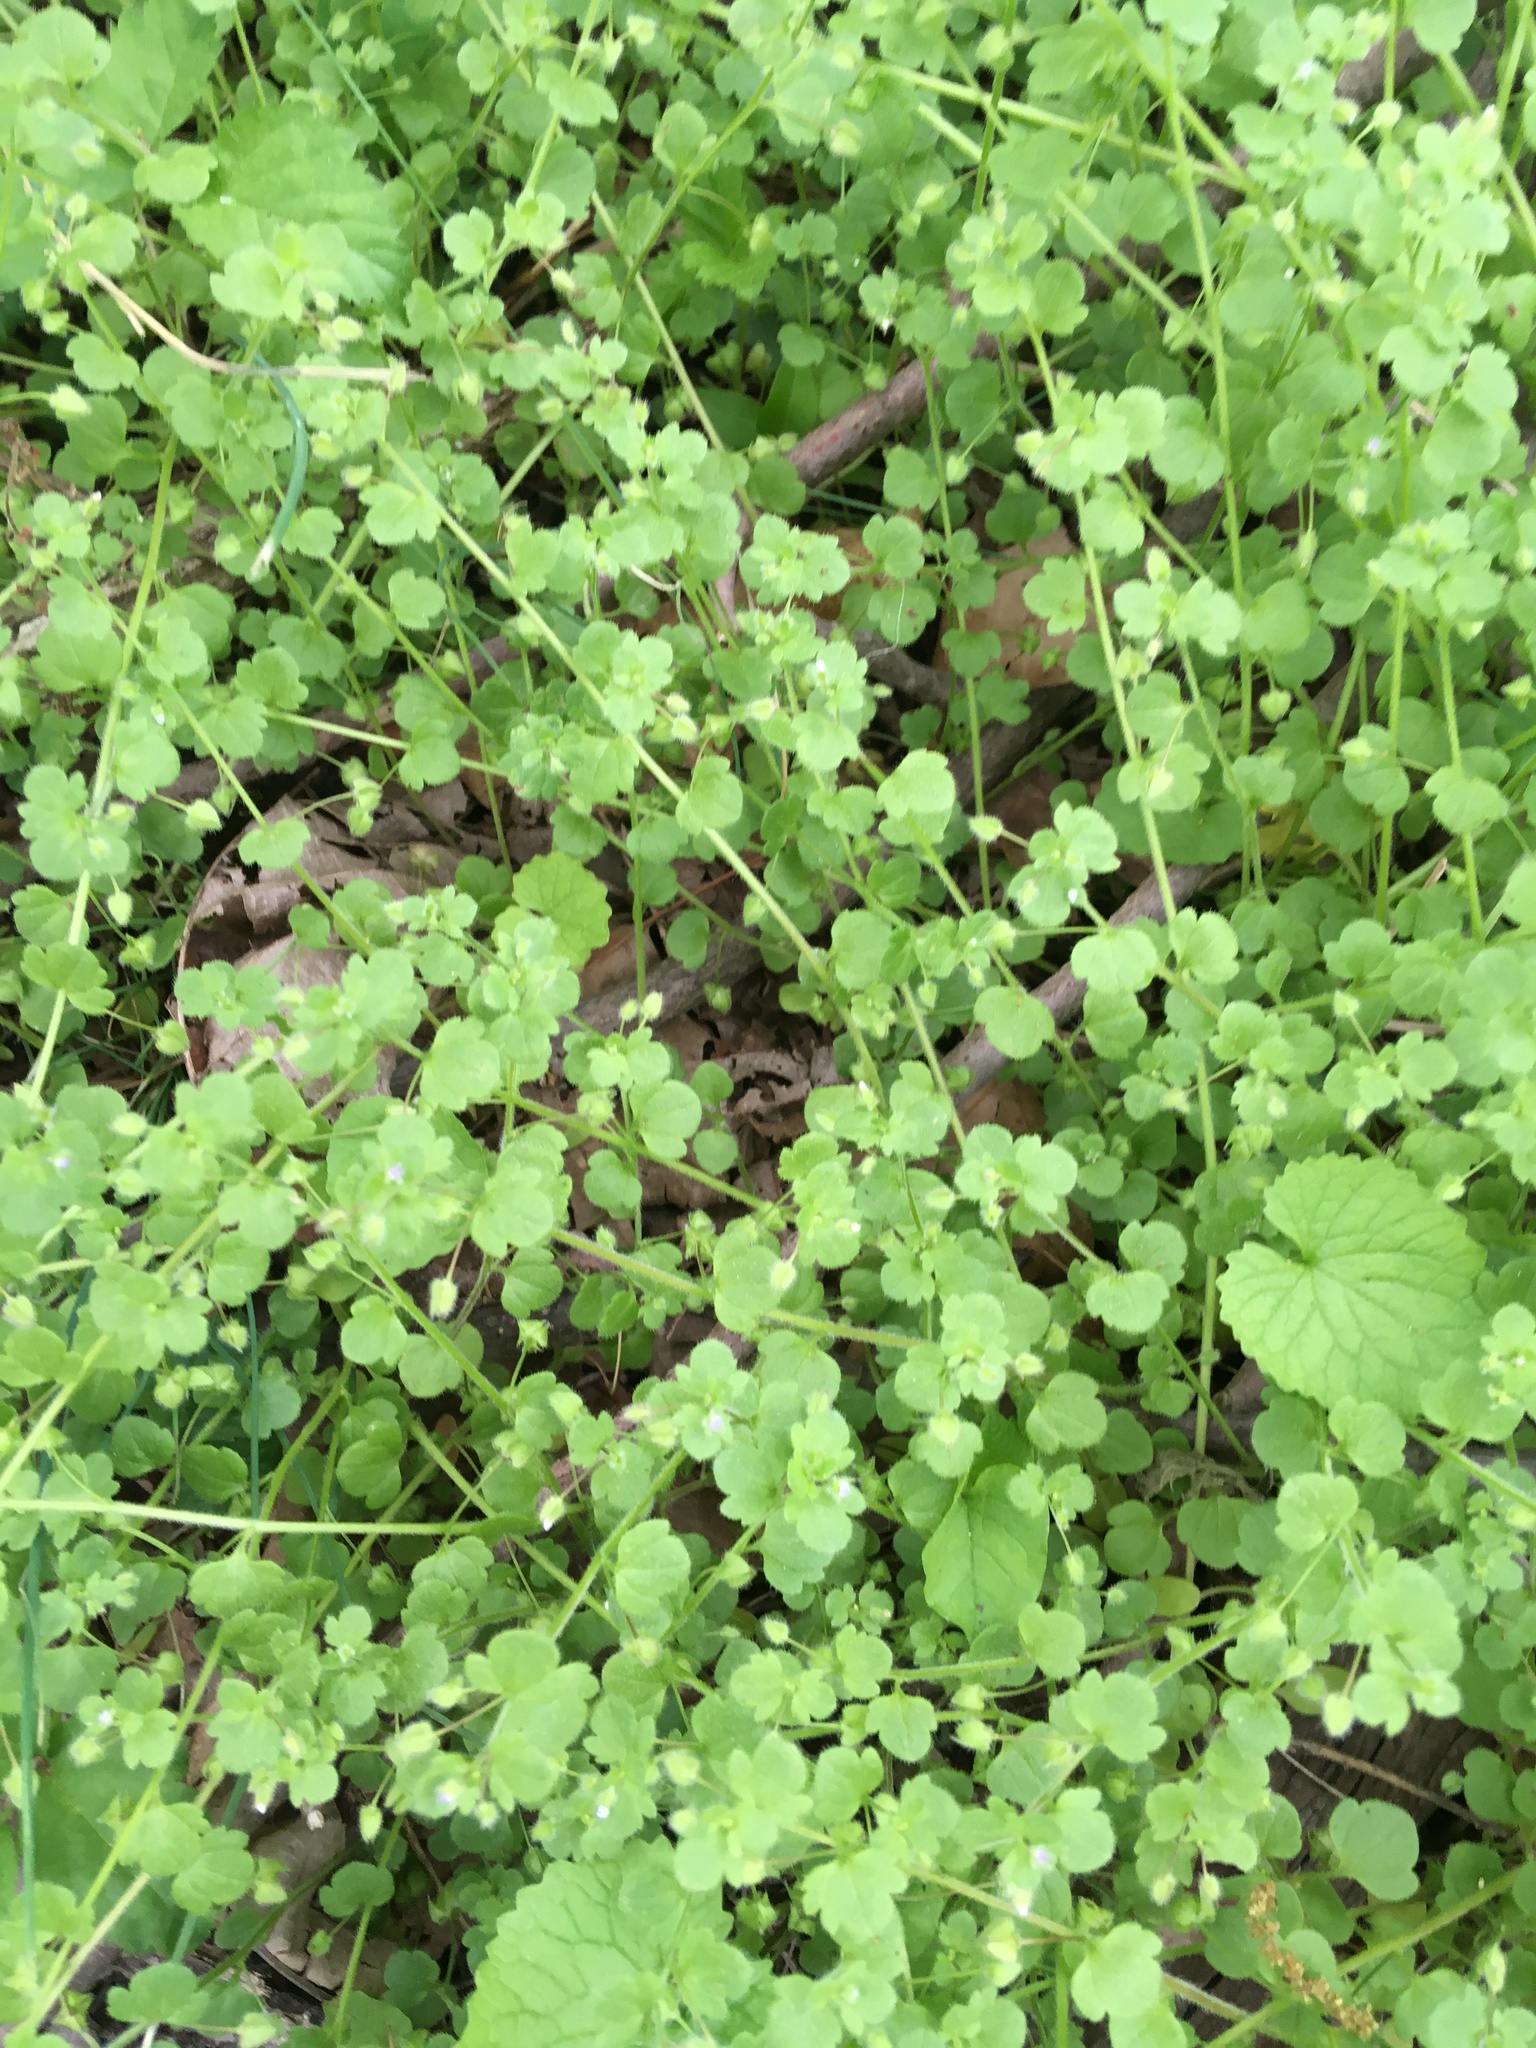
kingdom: Plantae
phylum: Tracheophyta
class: Magnoliopsida
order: Lamiales
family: Plantaginaceae
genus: Veronica
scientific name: Veronica hederifolia
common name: Ivy-leaved speedwell
